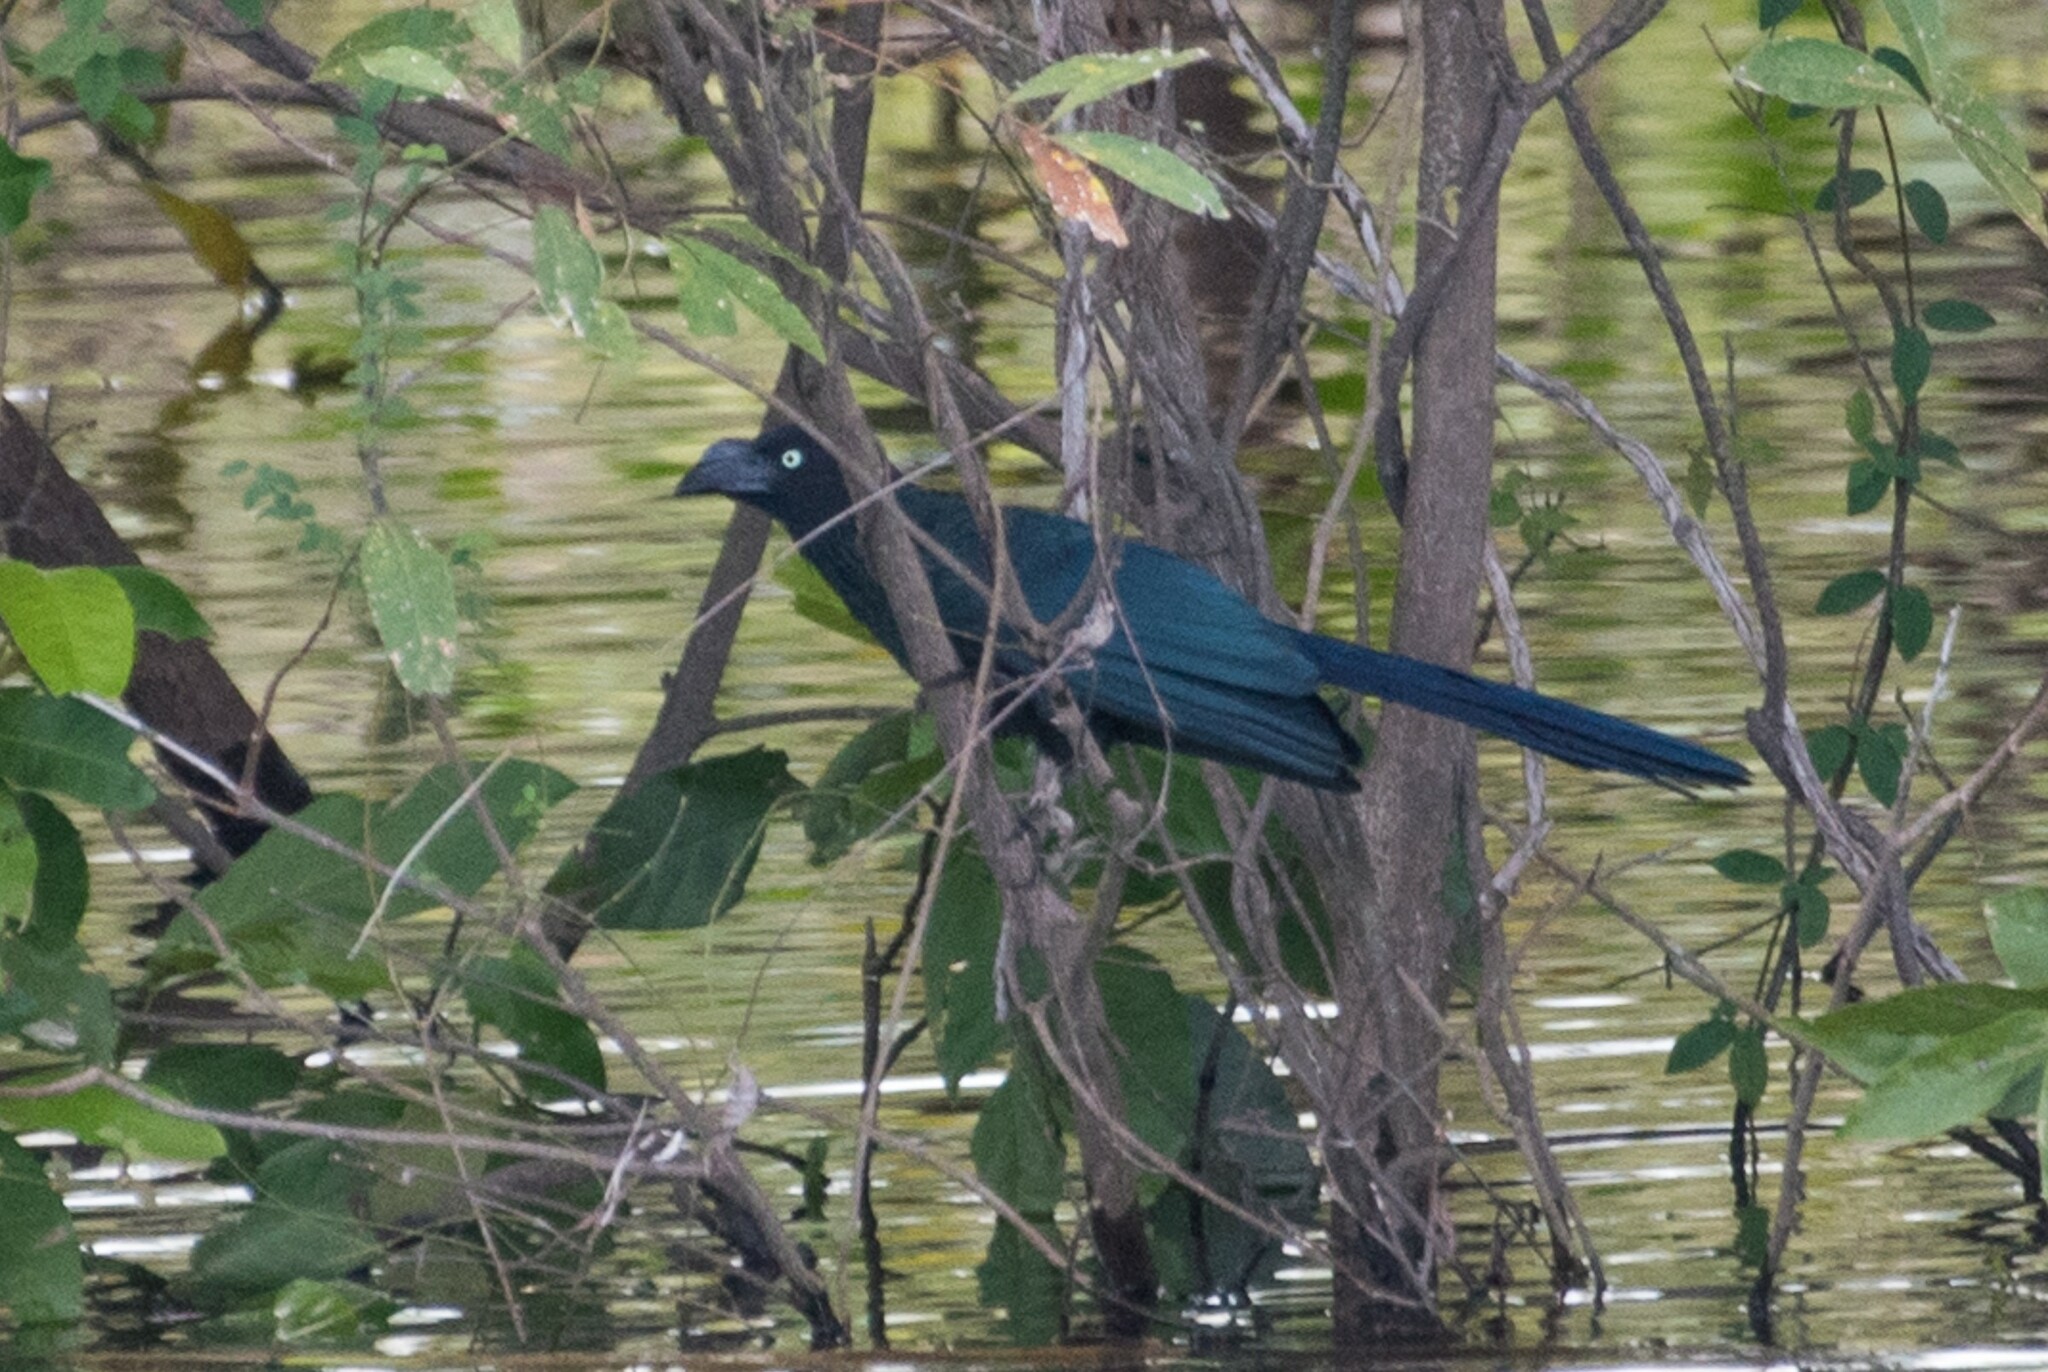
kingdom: Animalia
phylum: Chordata
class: Aves
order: Cuculiformes
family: Cuculidae
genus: Crotophaga
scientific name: Crotophaga major
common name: Greater ani
